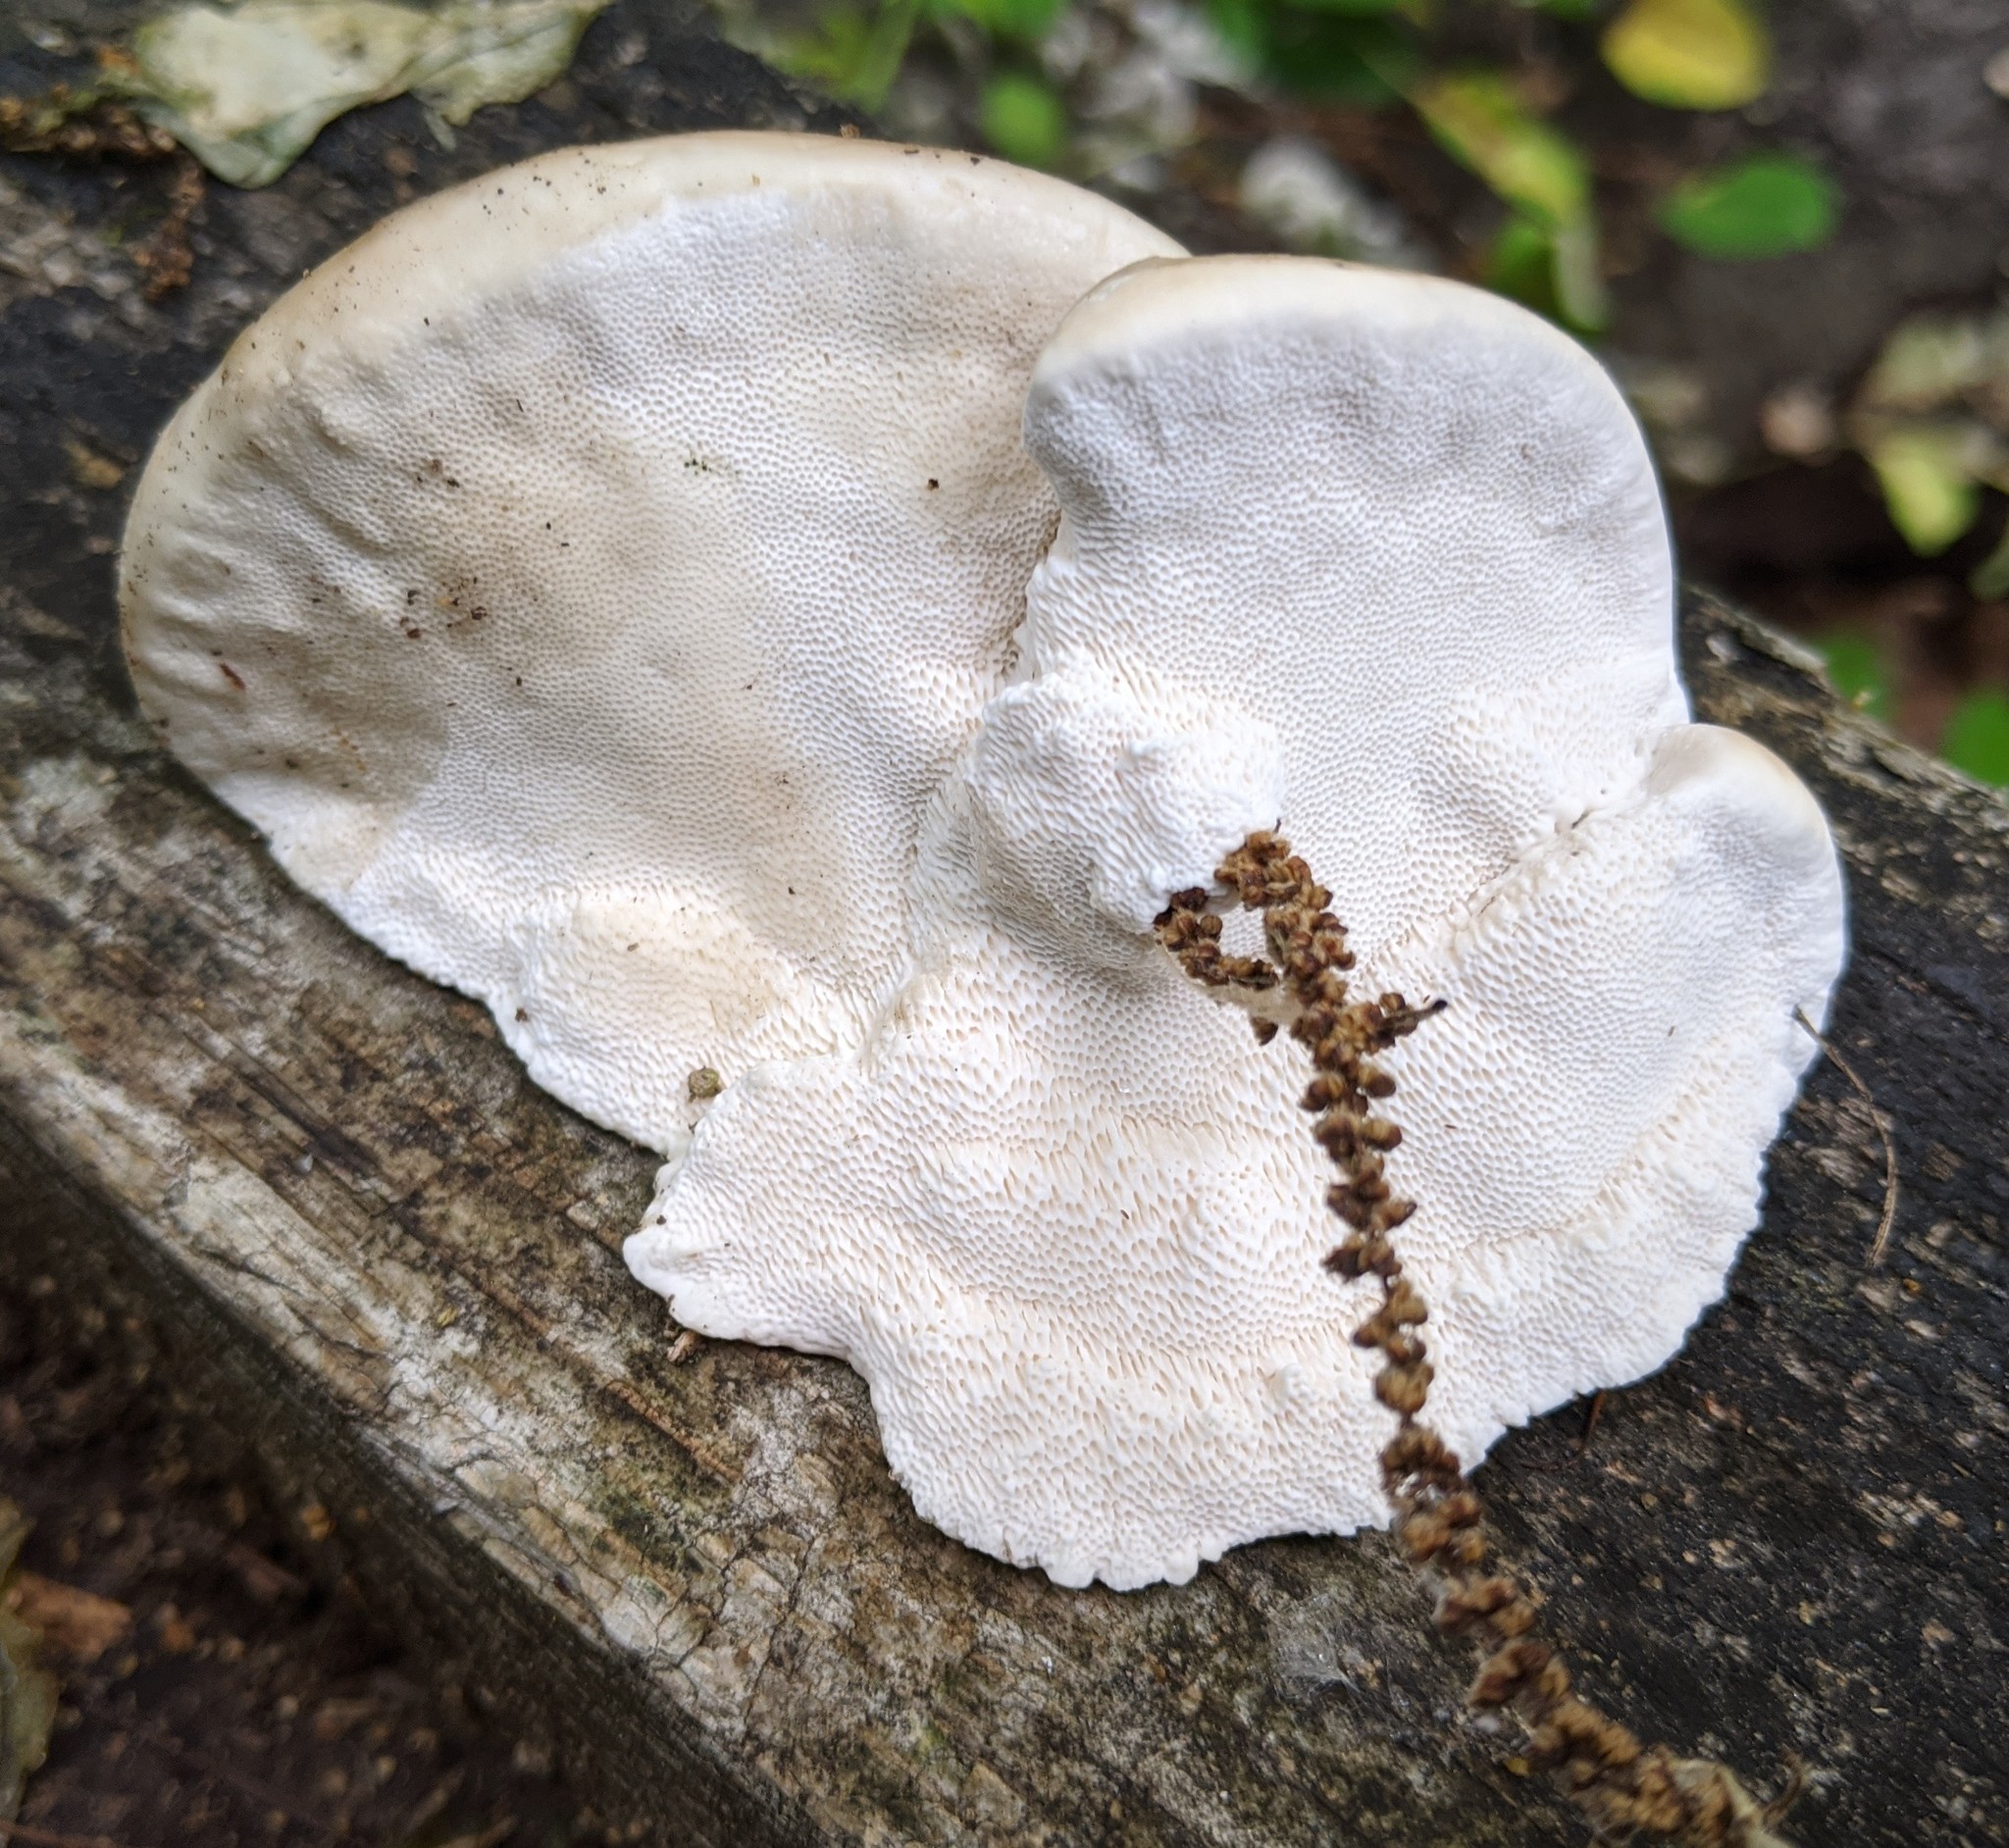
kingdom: Fungi
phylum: Basidiomycota
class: Agaricomycetes
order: Polyporales
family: Polyporaceae
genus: Trametes
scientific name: Trametes lactinea
